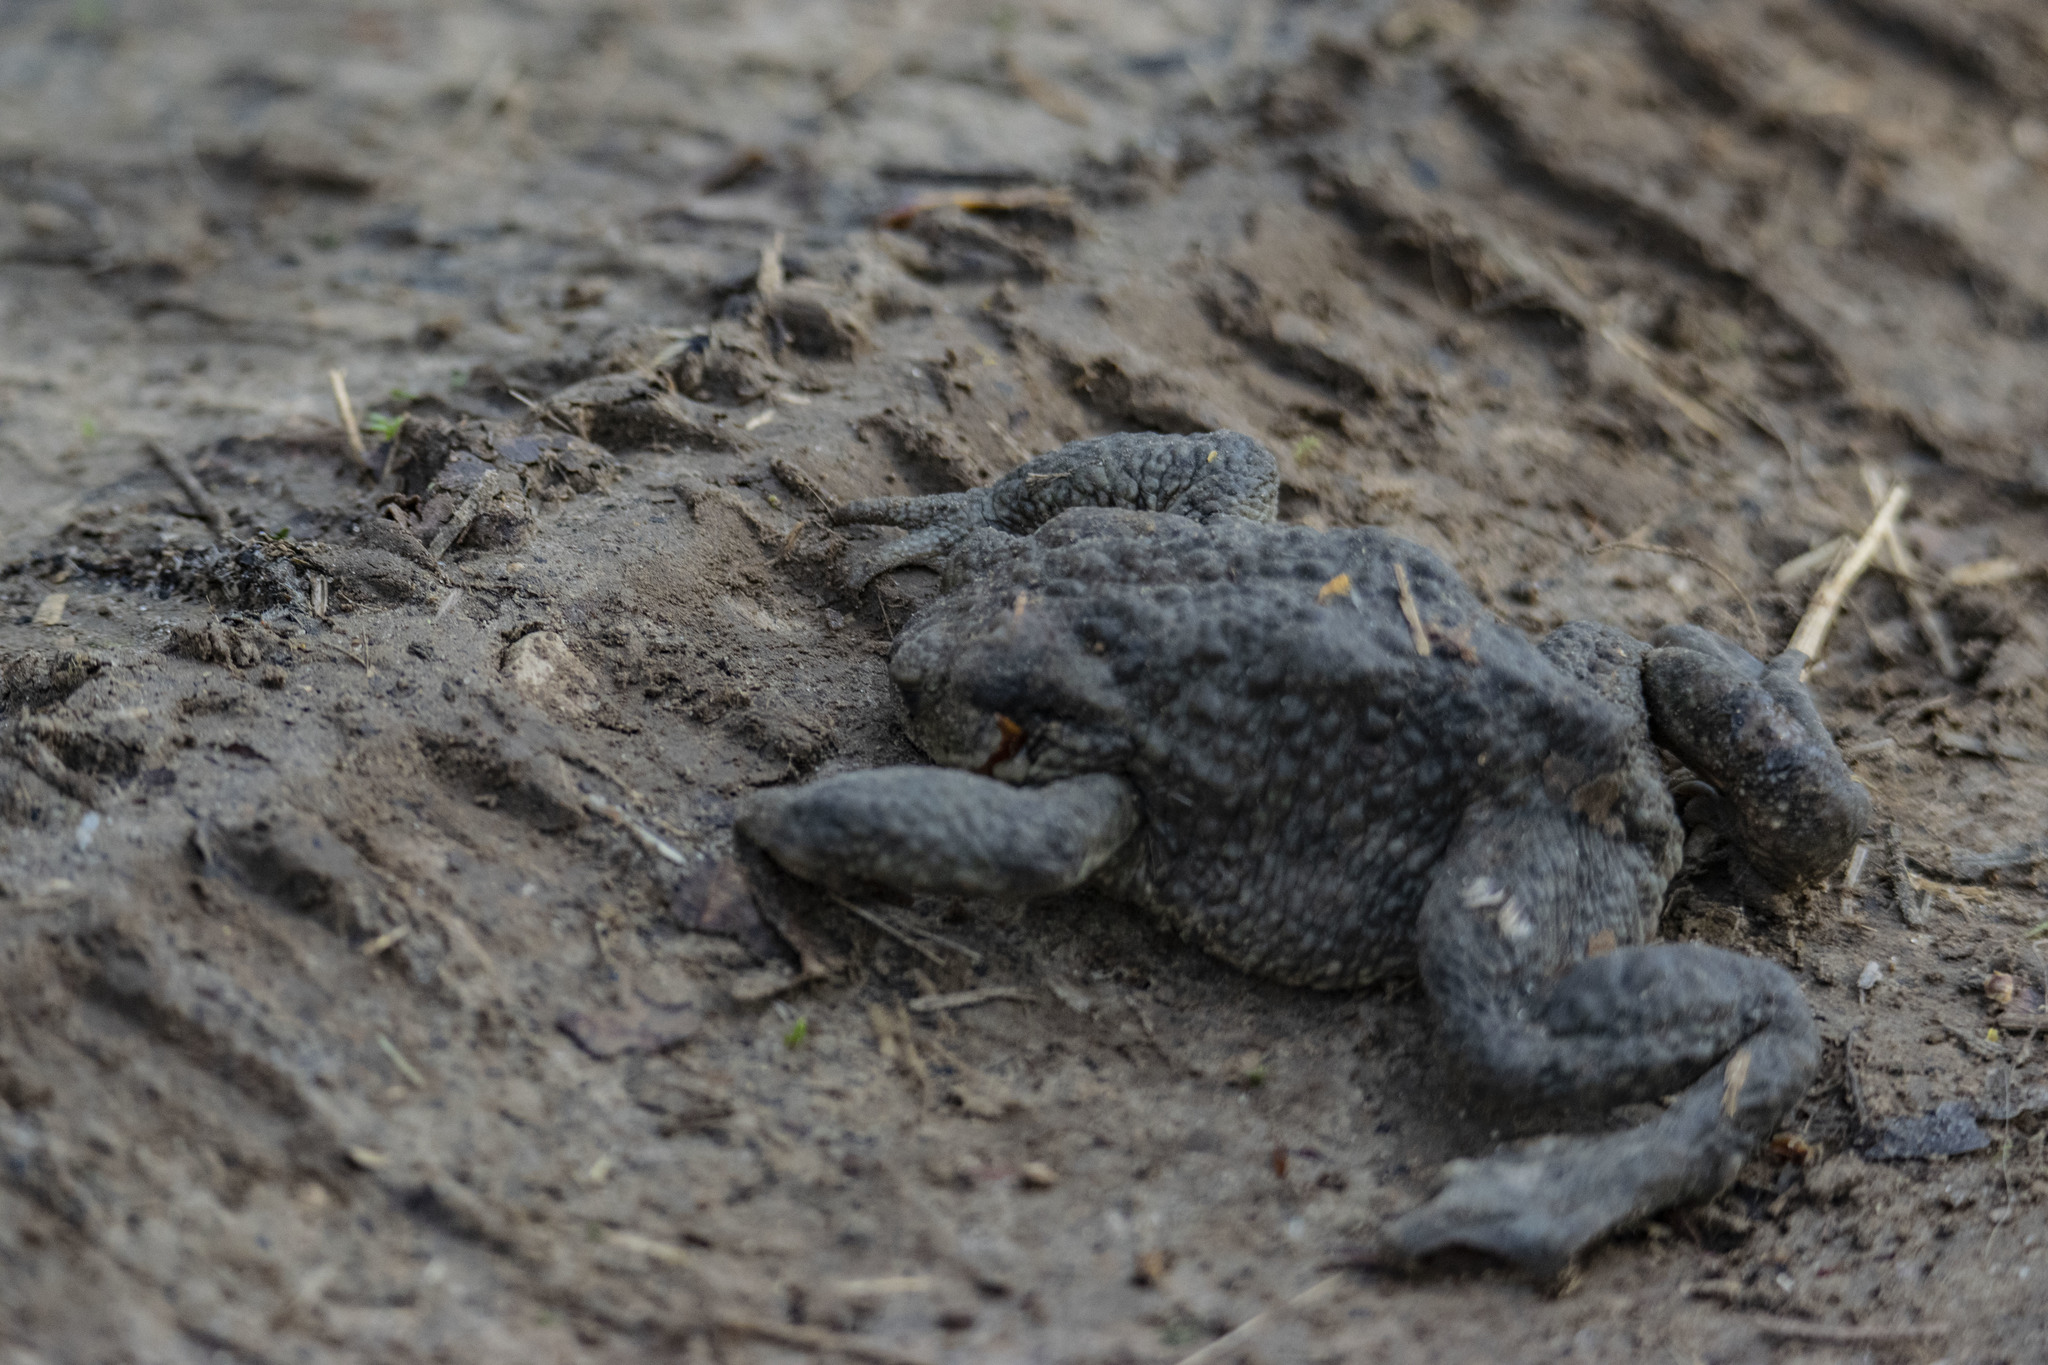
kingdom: Animalia
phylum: Chordata
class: Amphibia
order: Anura
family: Bufonidae
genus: Bufo
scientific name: Bufo bufo
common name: Common toad
